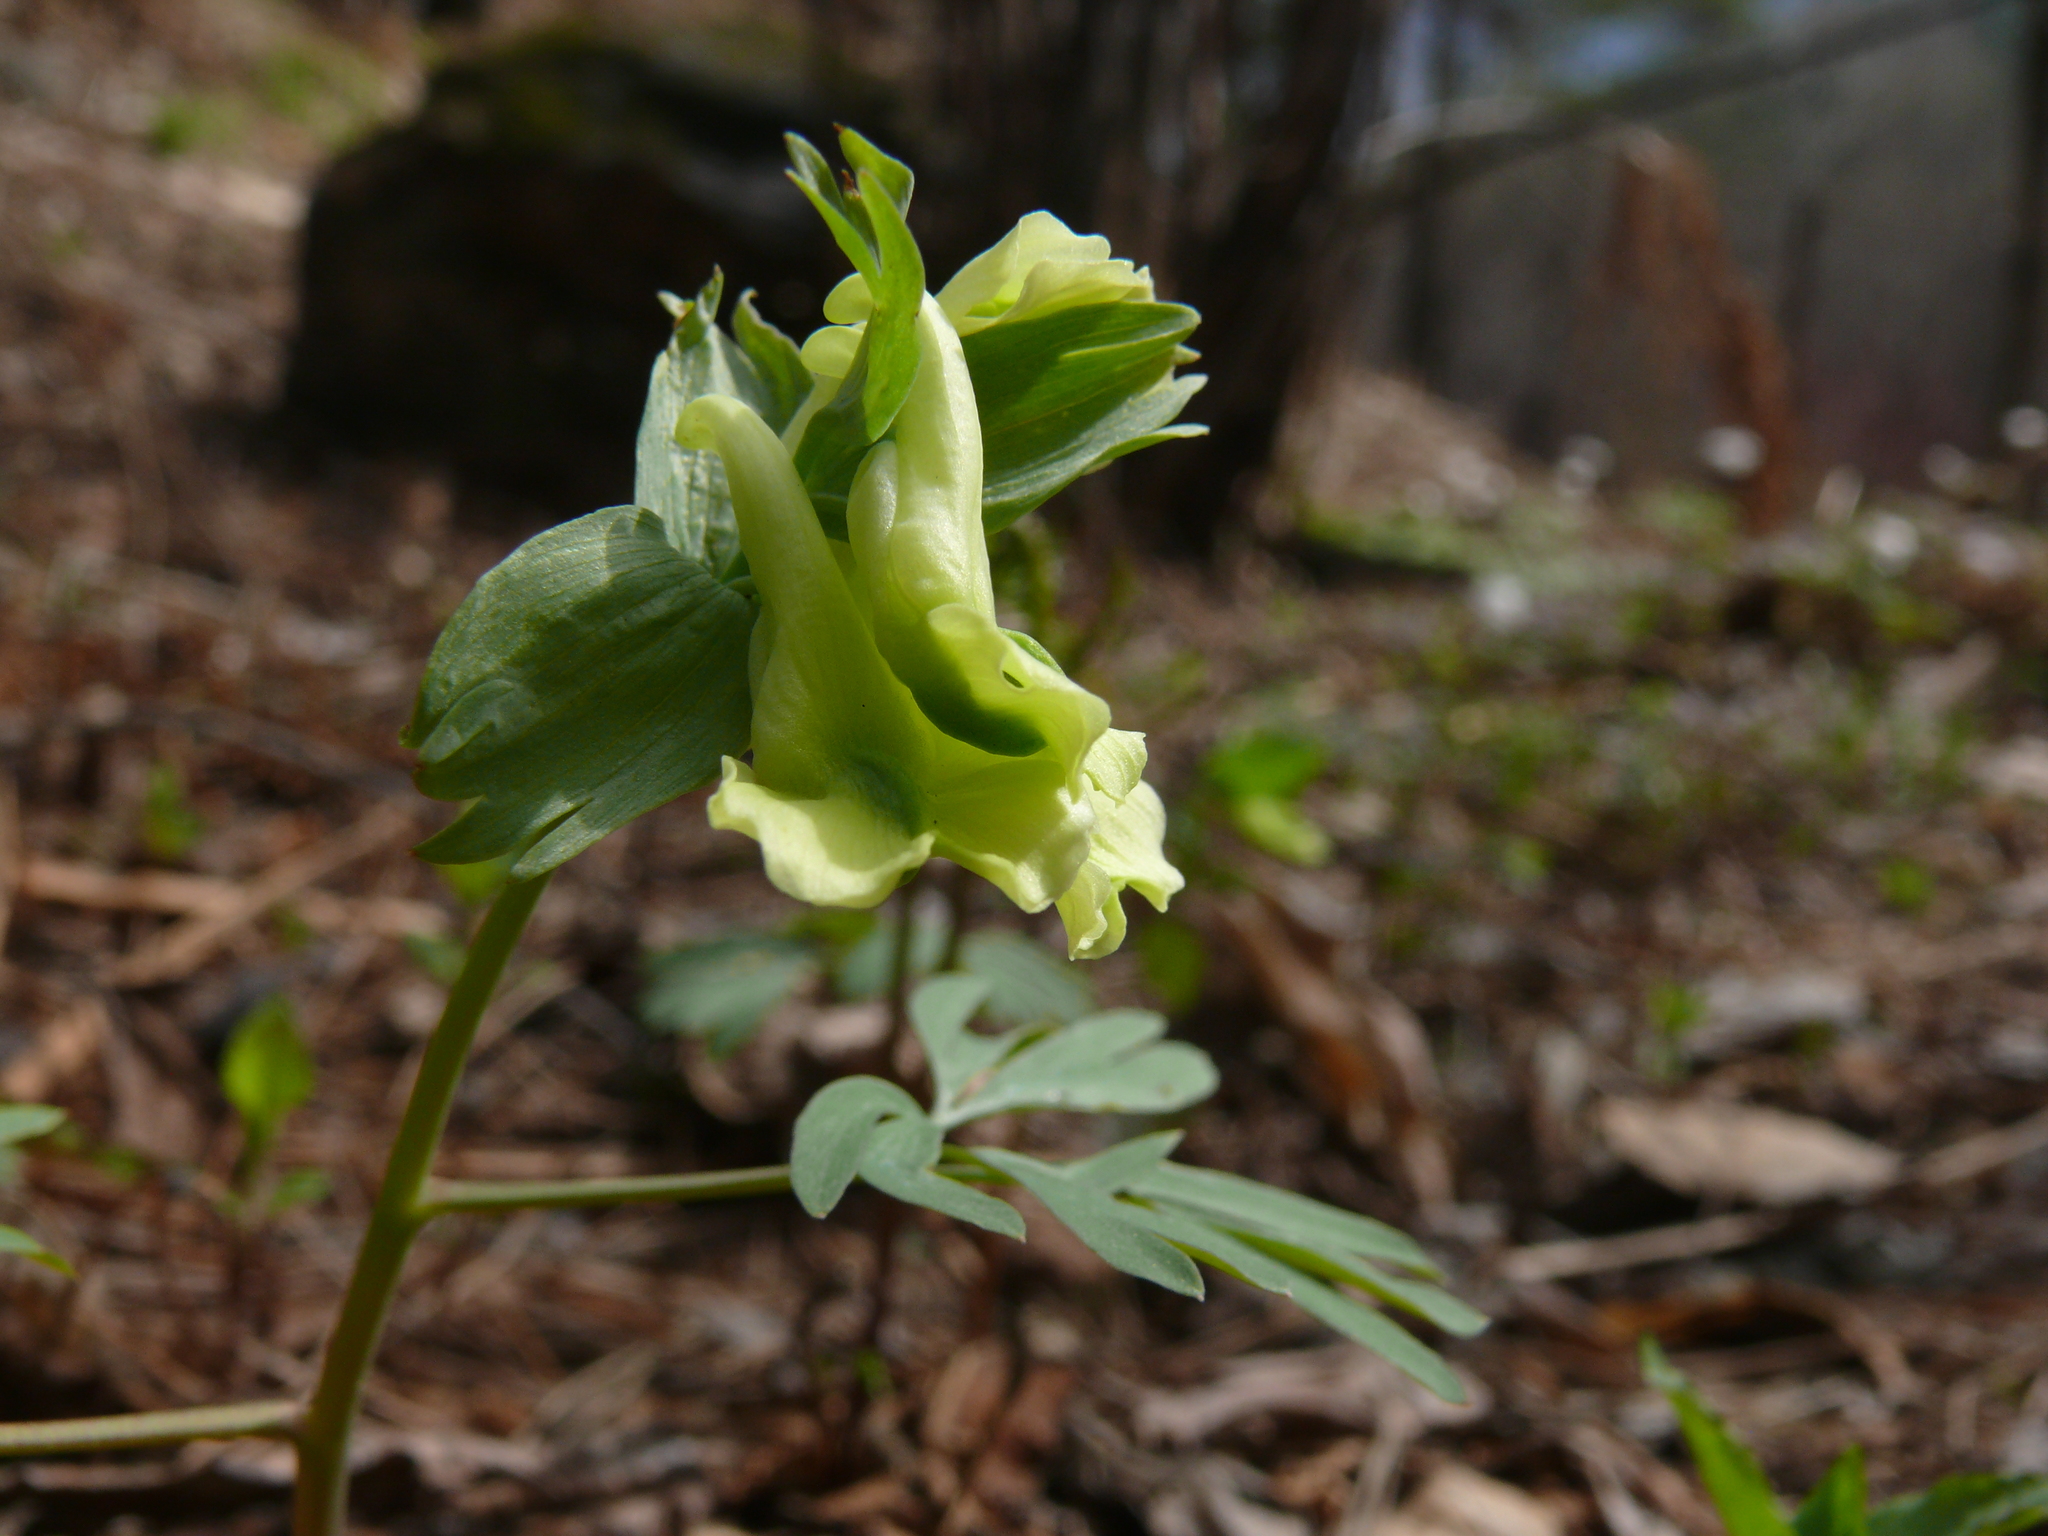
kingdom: Plantae
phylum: Tracheophyta
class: Magnoliopsida
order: Ranunculales
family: Papaveraceae
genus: Corydalis
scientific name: Corydalis bracteata
